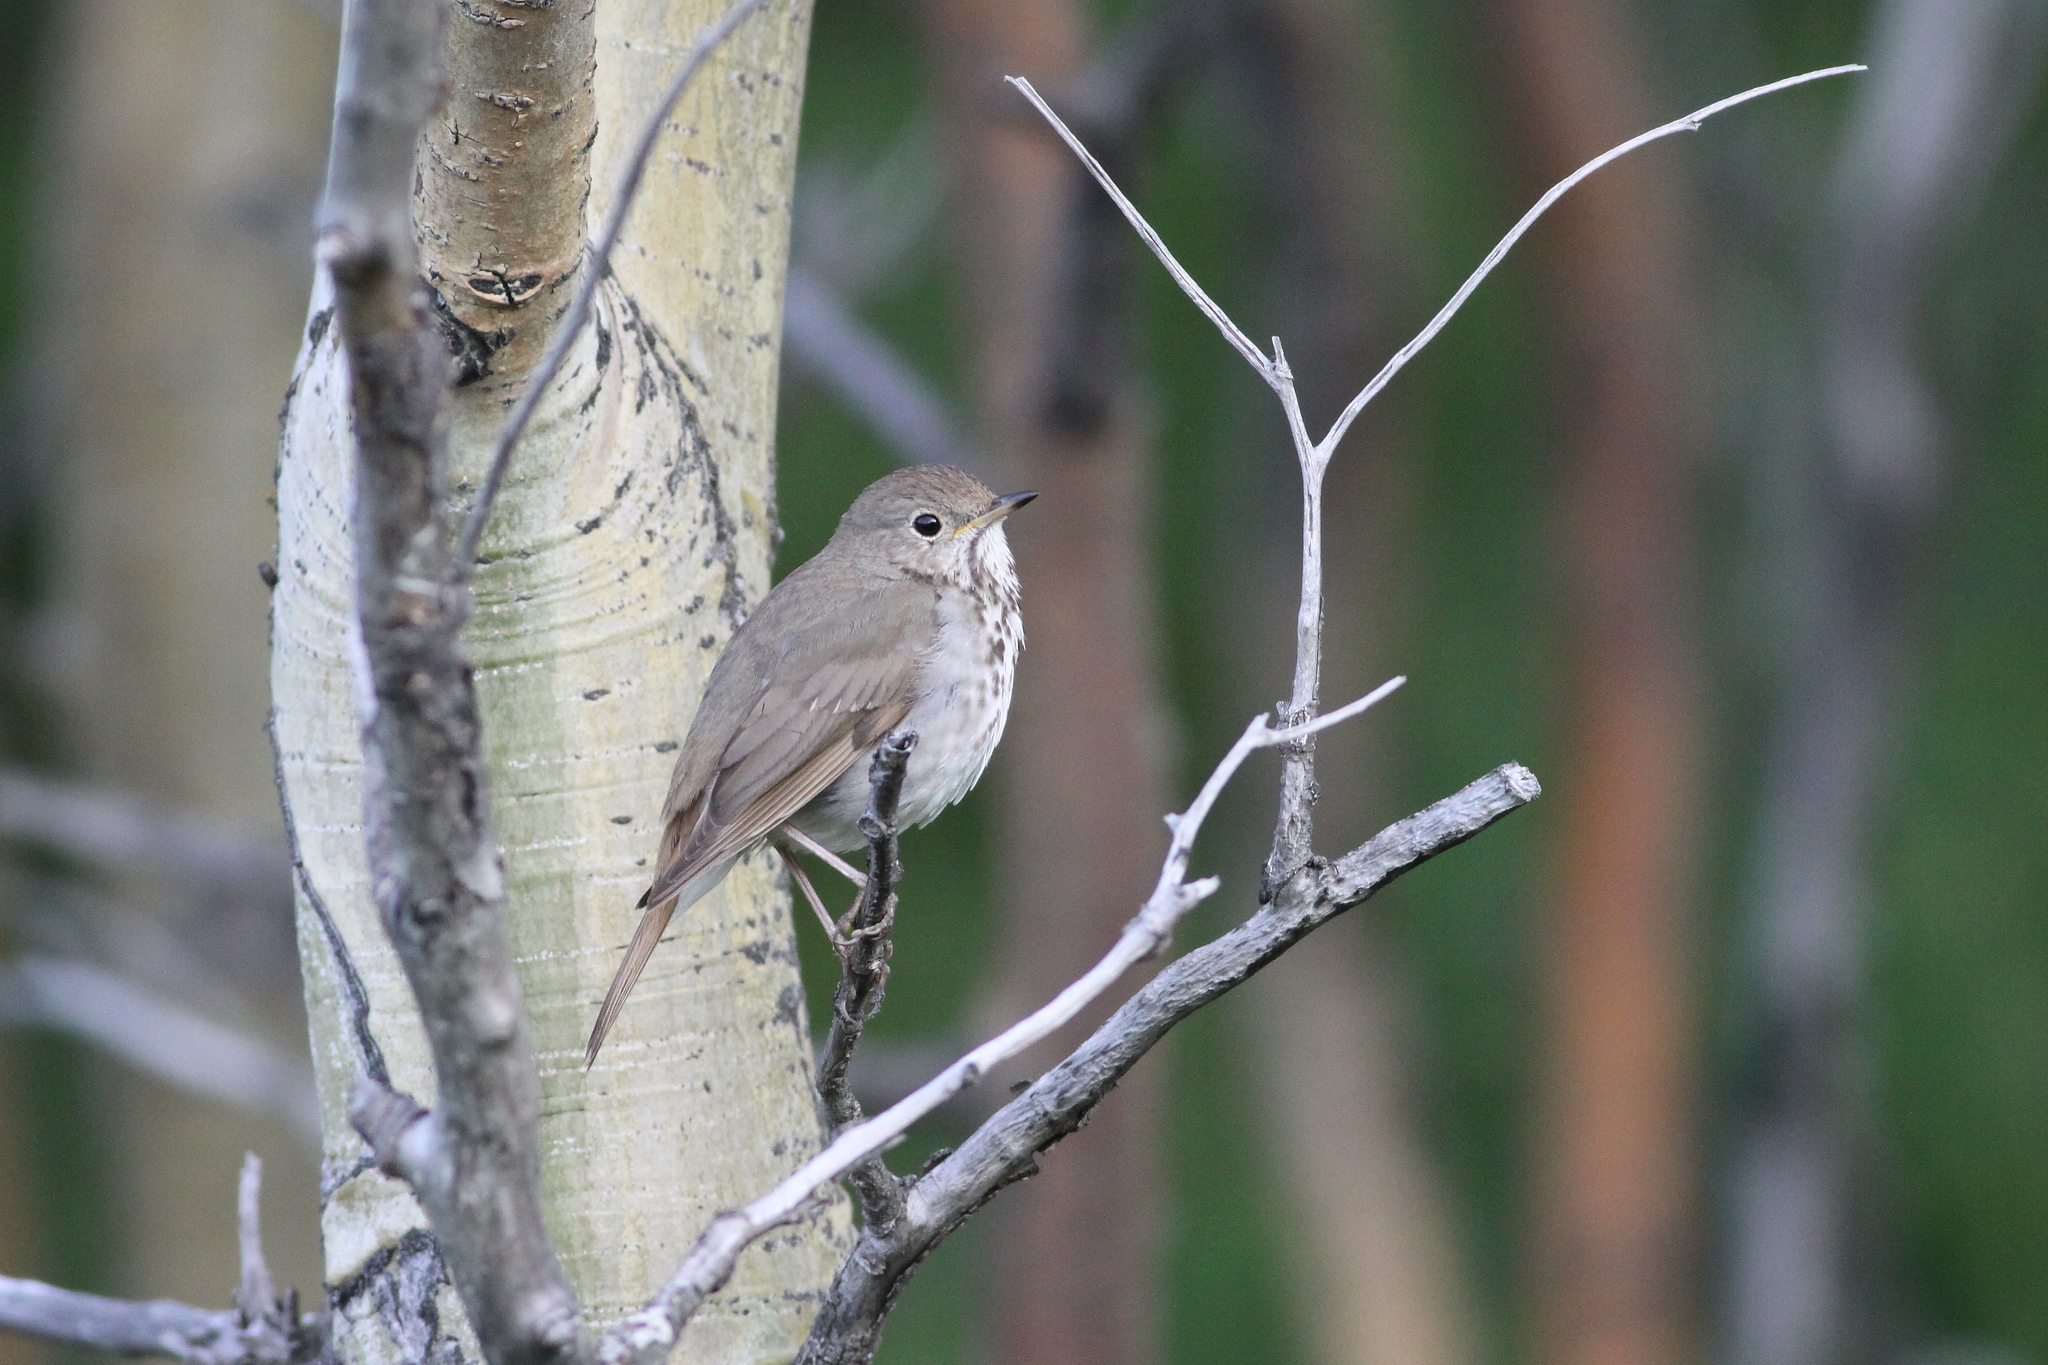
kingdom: Animalia
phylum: Chordata
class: Aves
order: Passeriformes
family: Turdidae
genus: Catharus
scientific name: Catharus guttatus
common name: Hermit thrush
